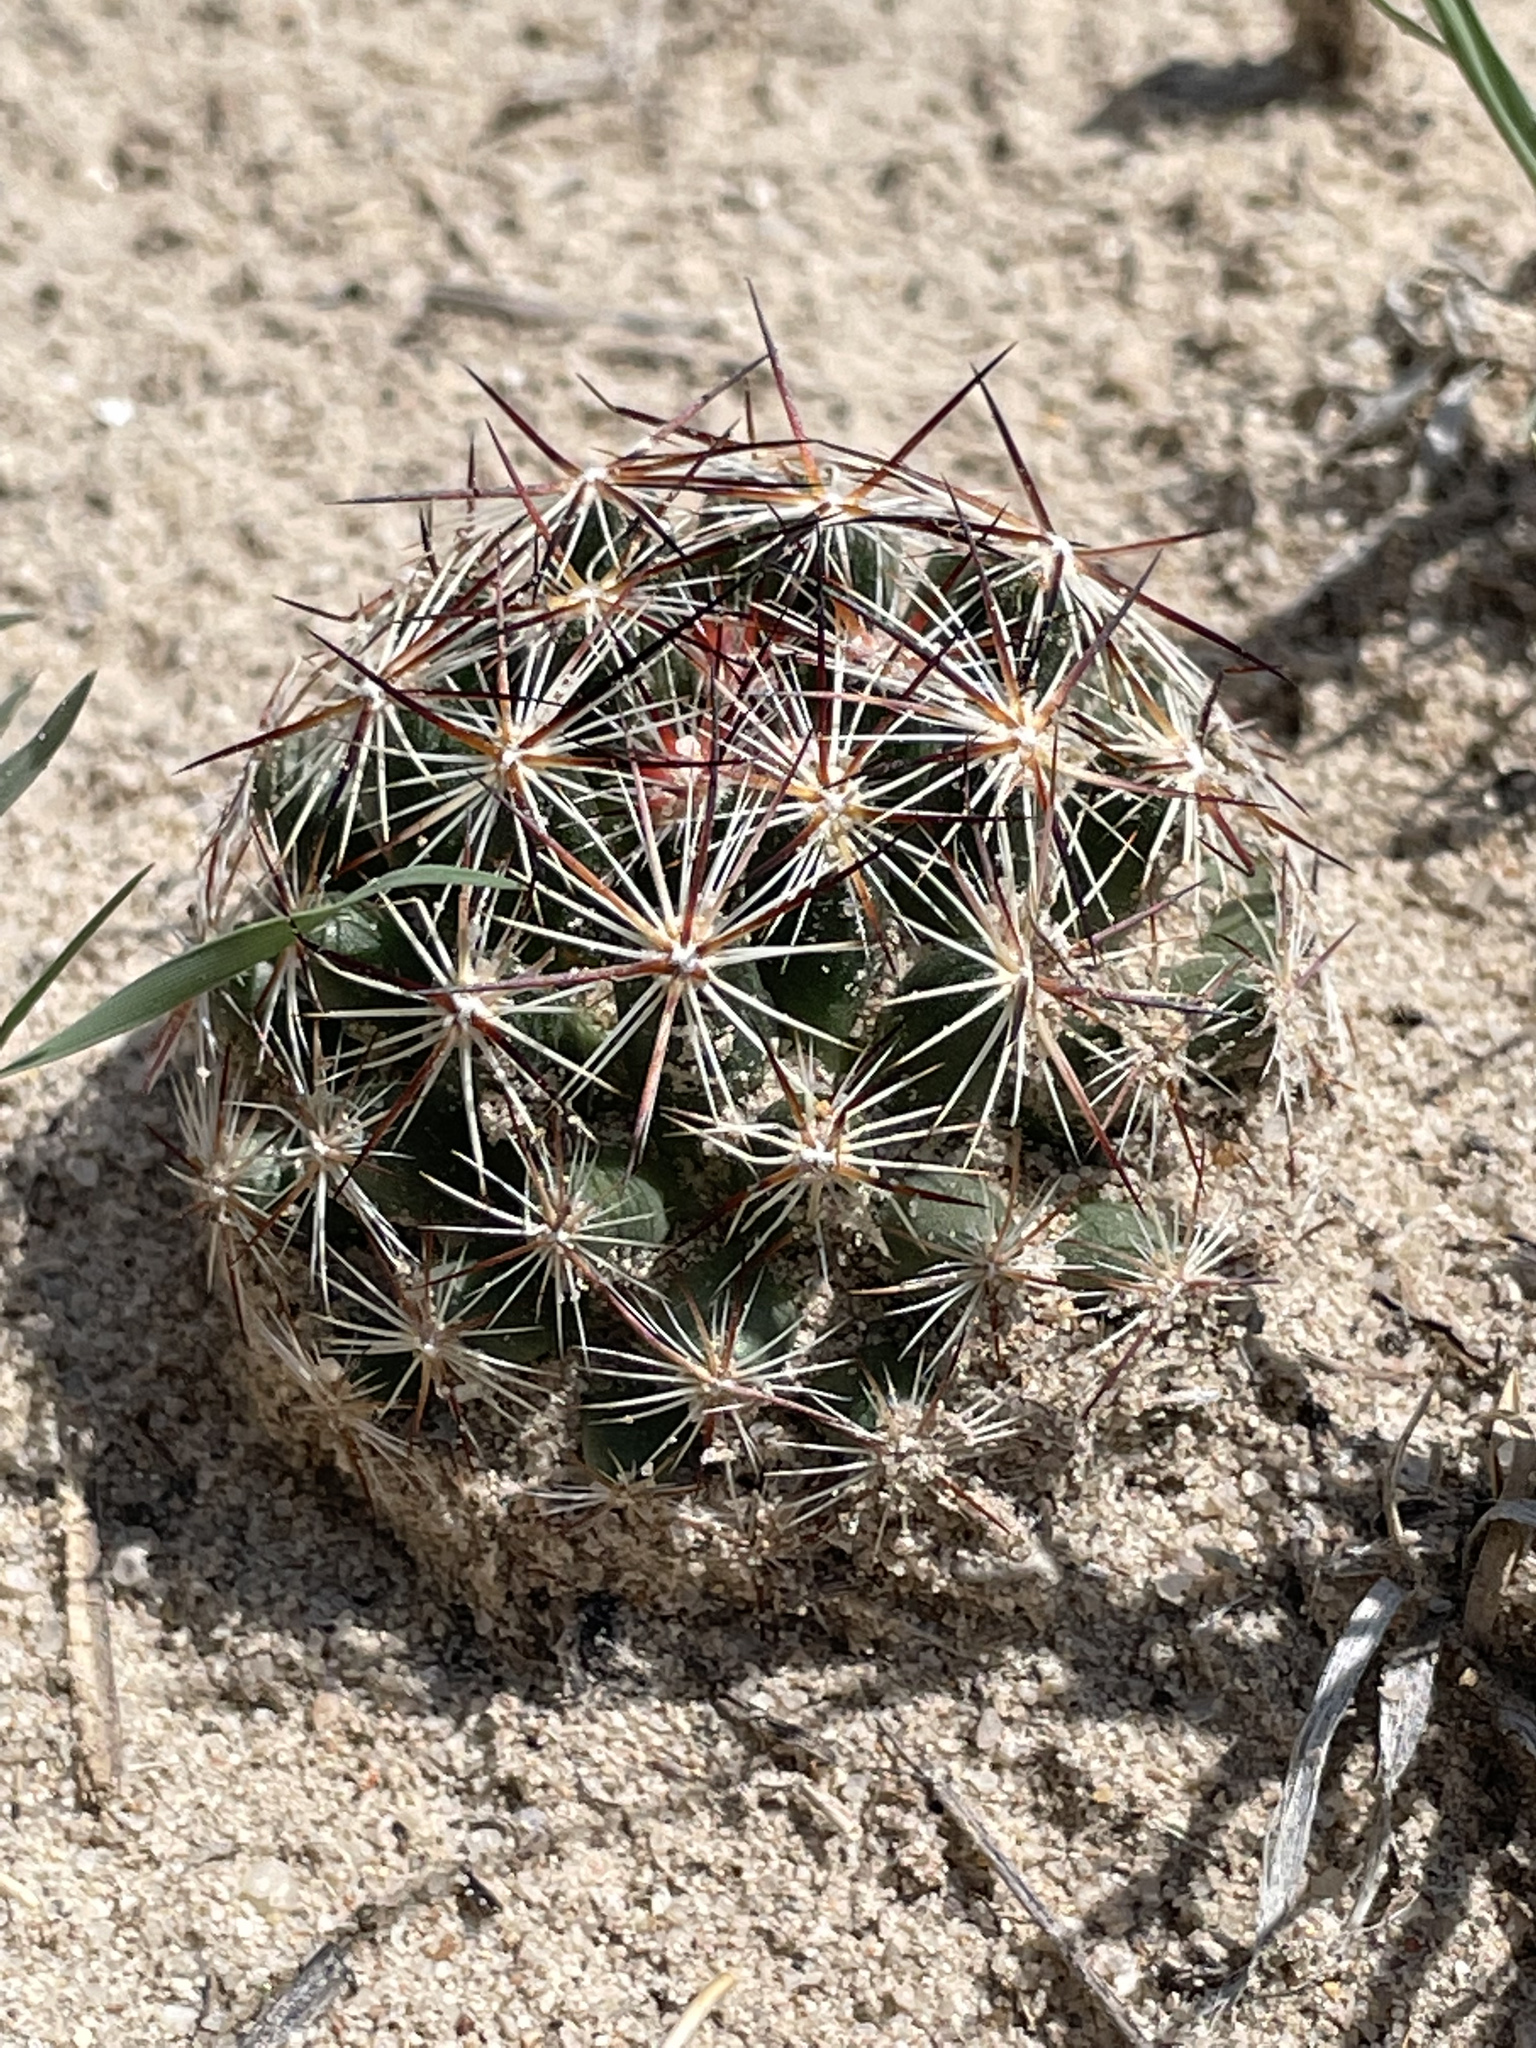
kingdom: Plantae
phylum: Tracheophyta
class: Magnoliopsida
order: Caryophyllales
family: Cactaceae
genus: Pelecyphora
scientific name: Pelecyphora vivipara
